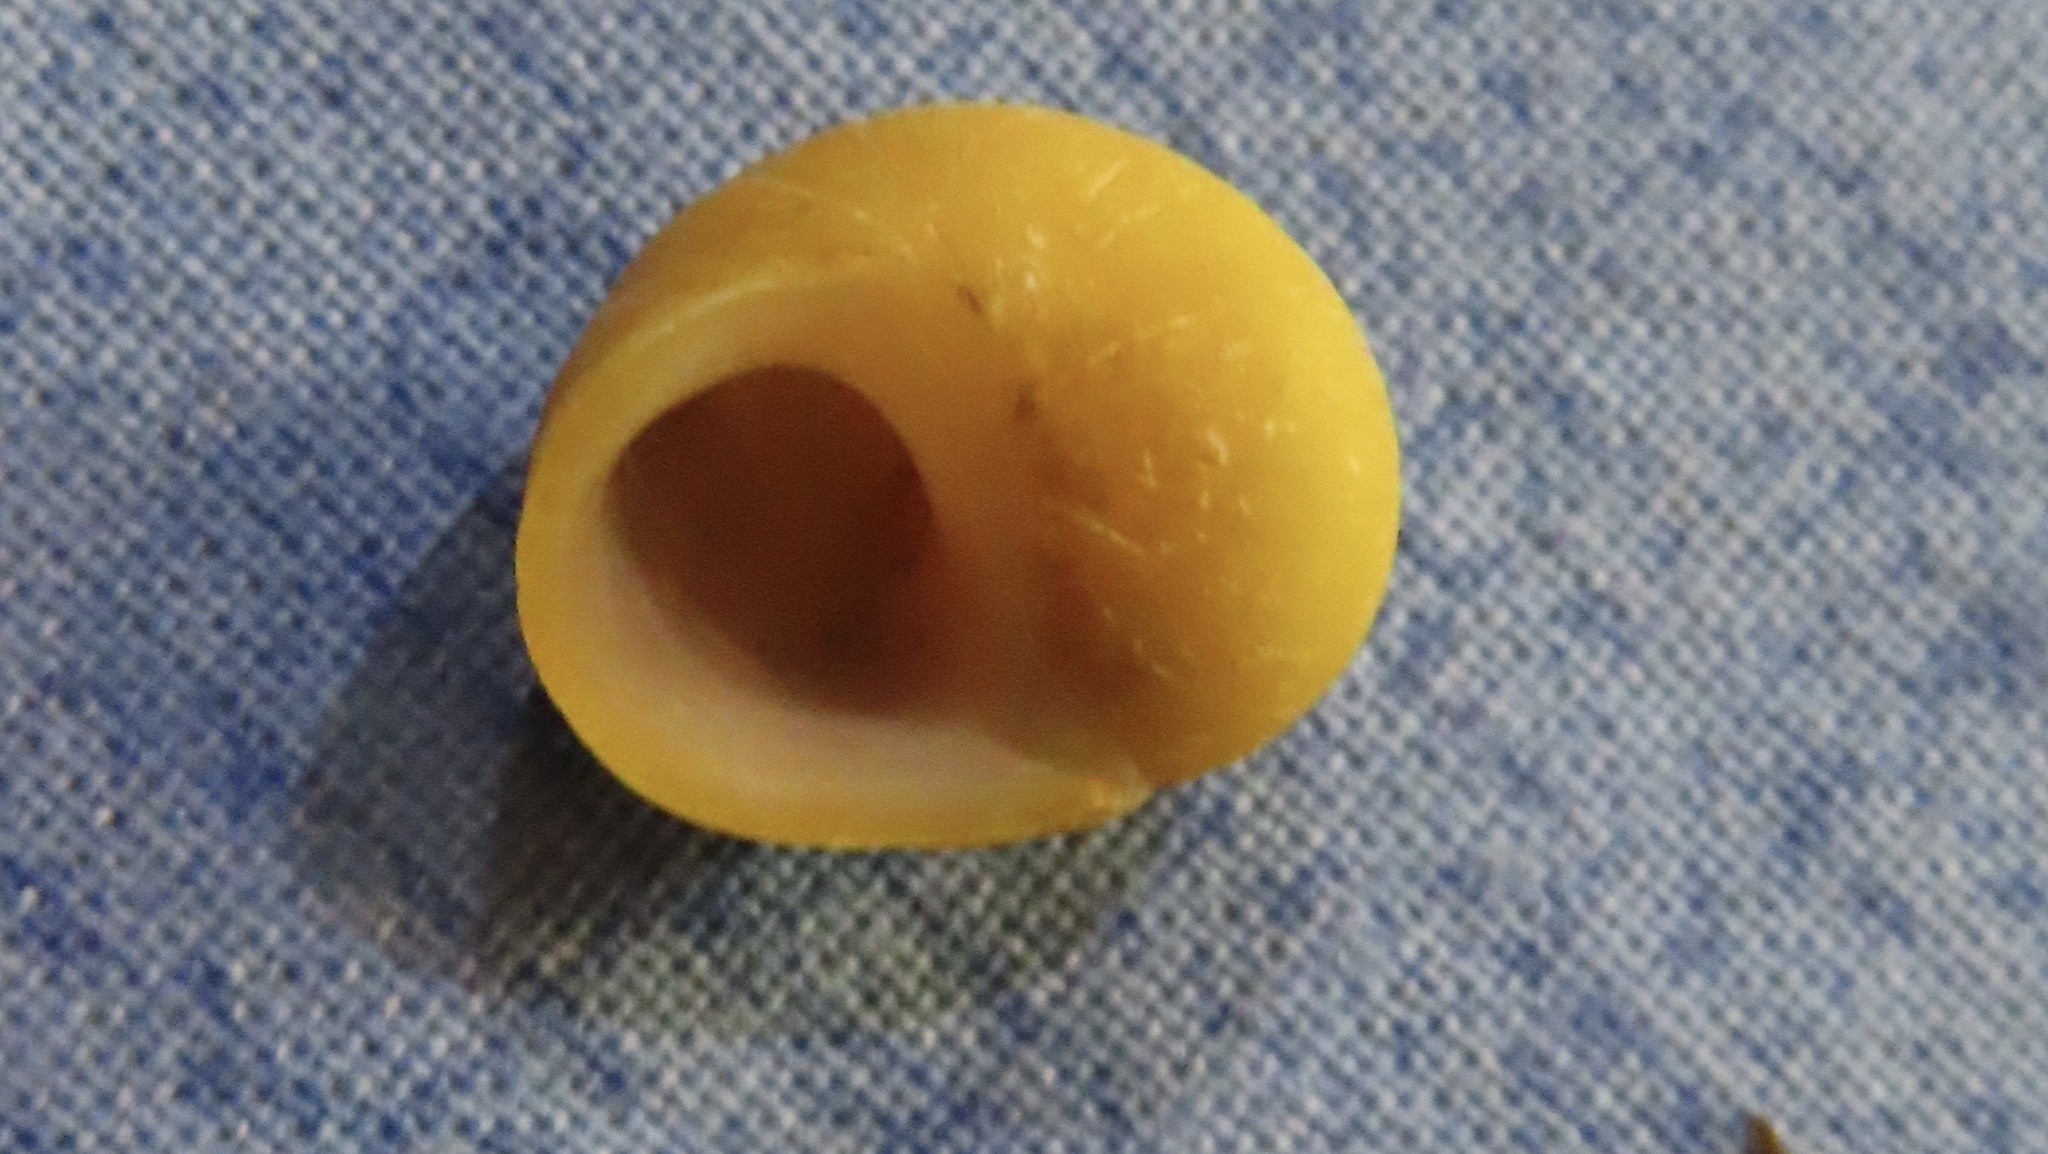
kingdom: Animalia
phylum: Mollusca
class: Gastropoda
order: Littorinimorpha
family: Littorinidae
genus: Littorina
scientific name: Littorina
